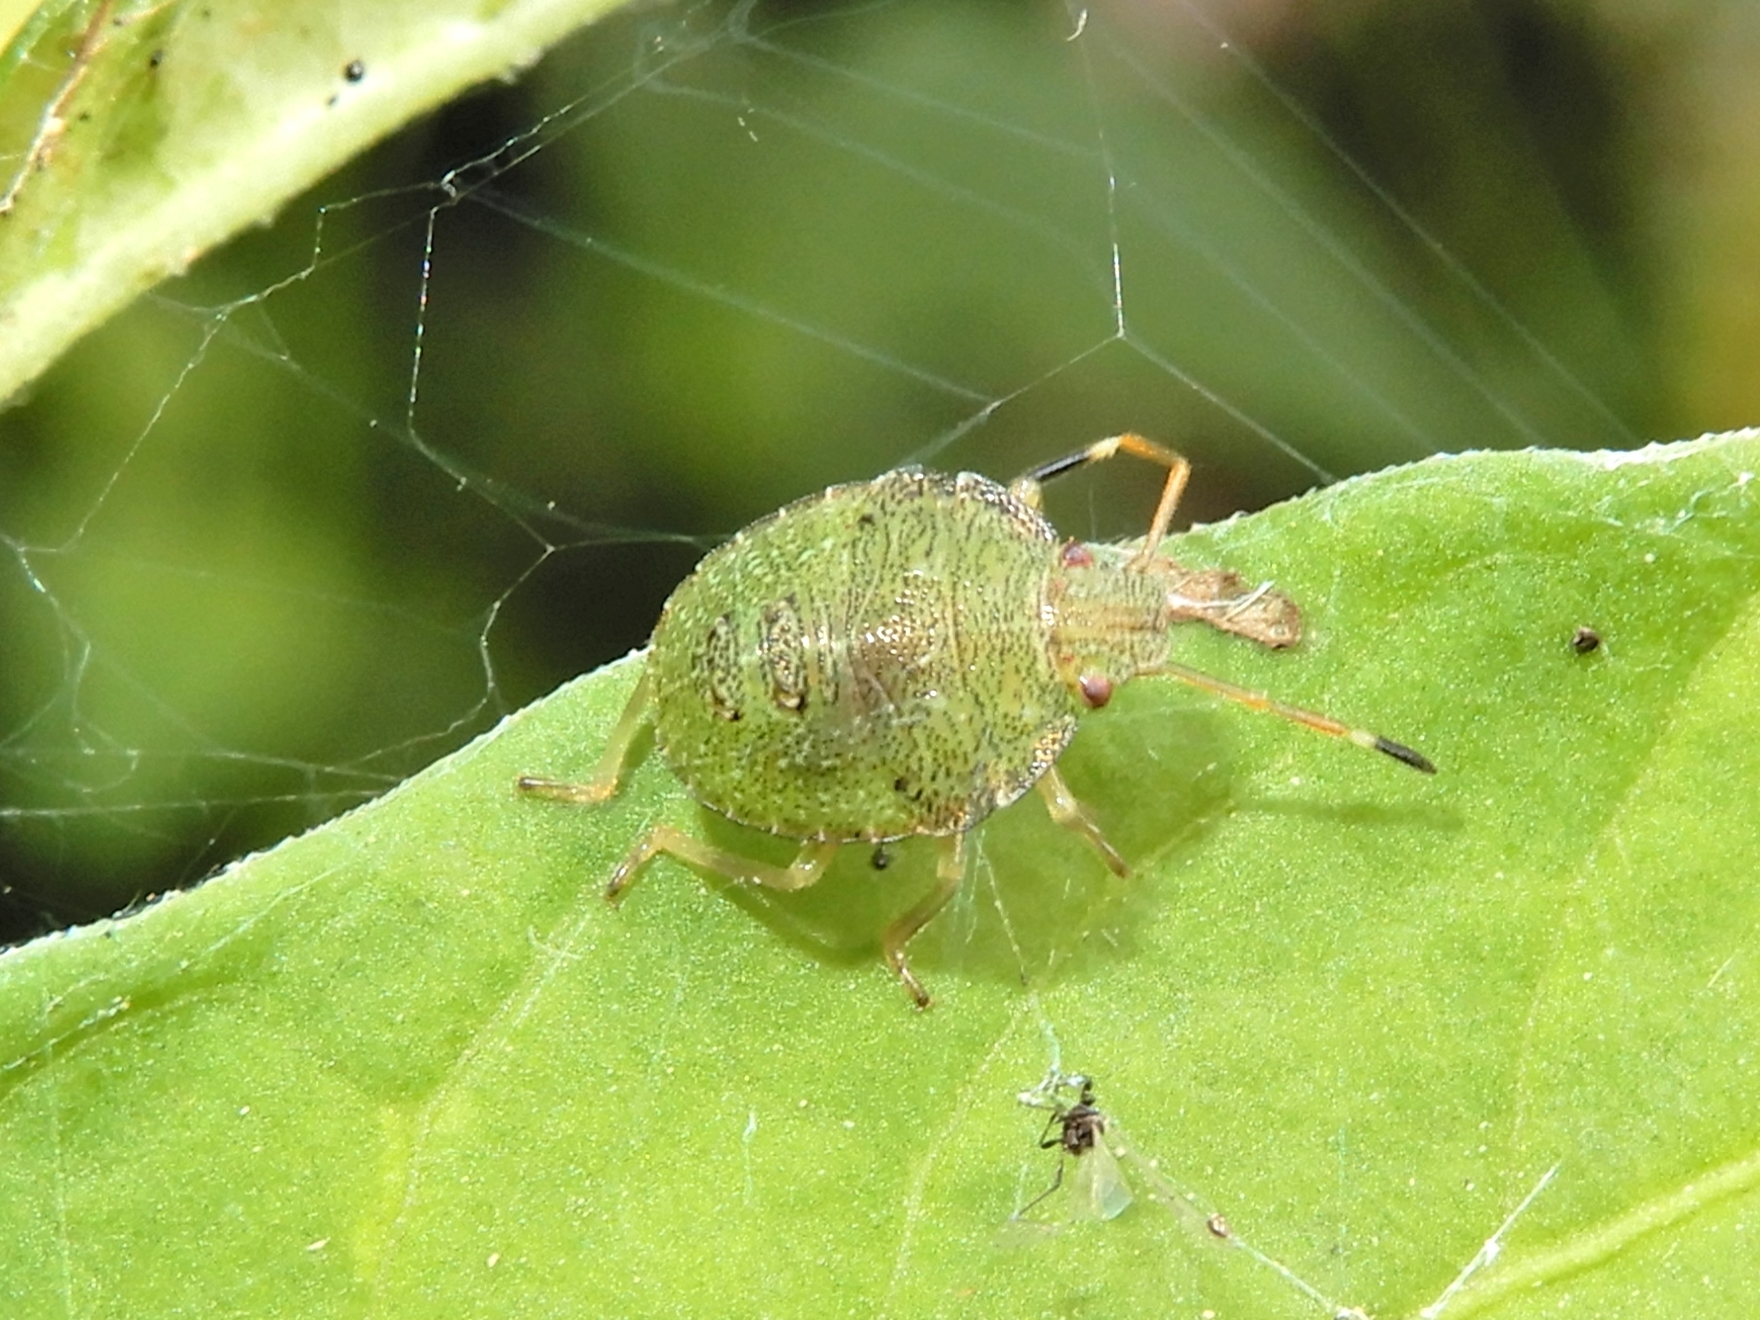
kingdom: Animalia
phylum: Arthropoda
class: Insecta
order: Hemiptera
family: Pentatomidae
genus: Cuspicona
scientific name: Cuspicona simplex
